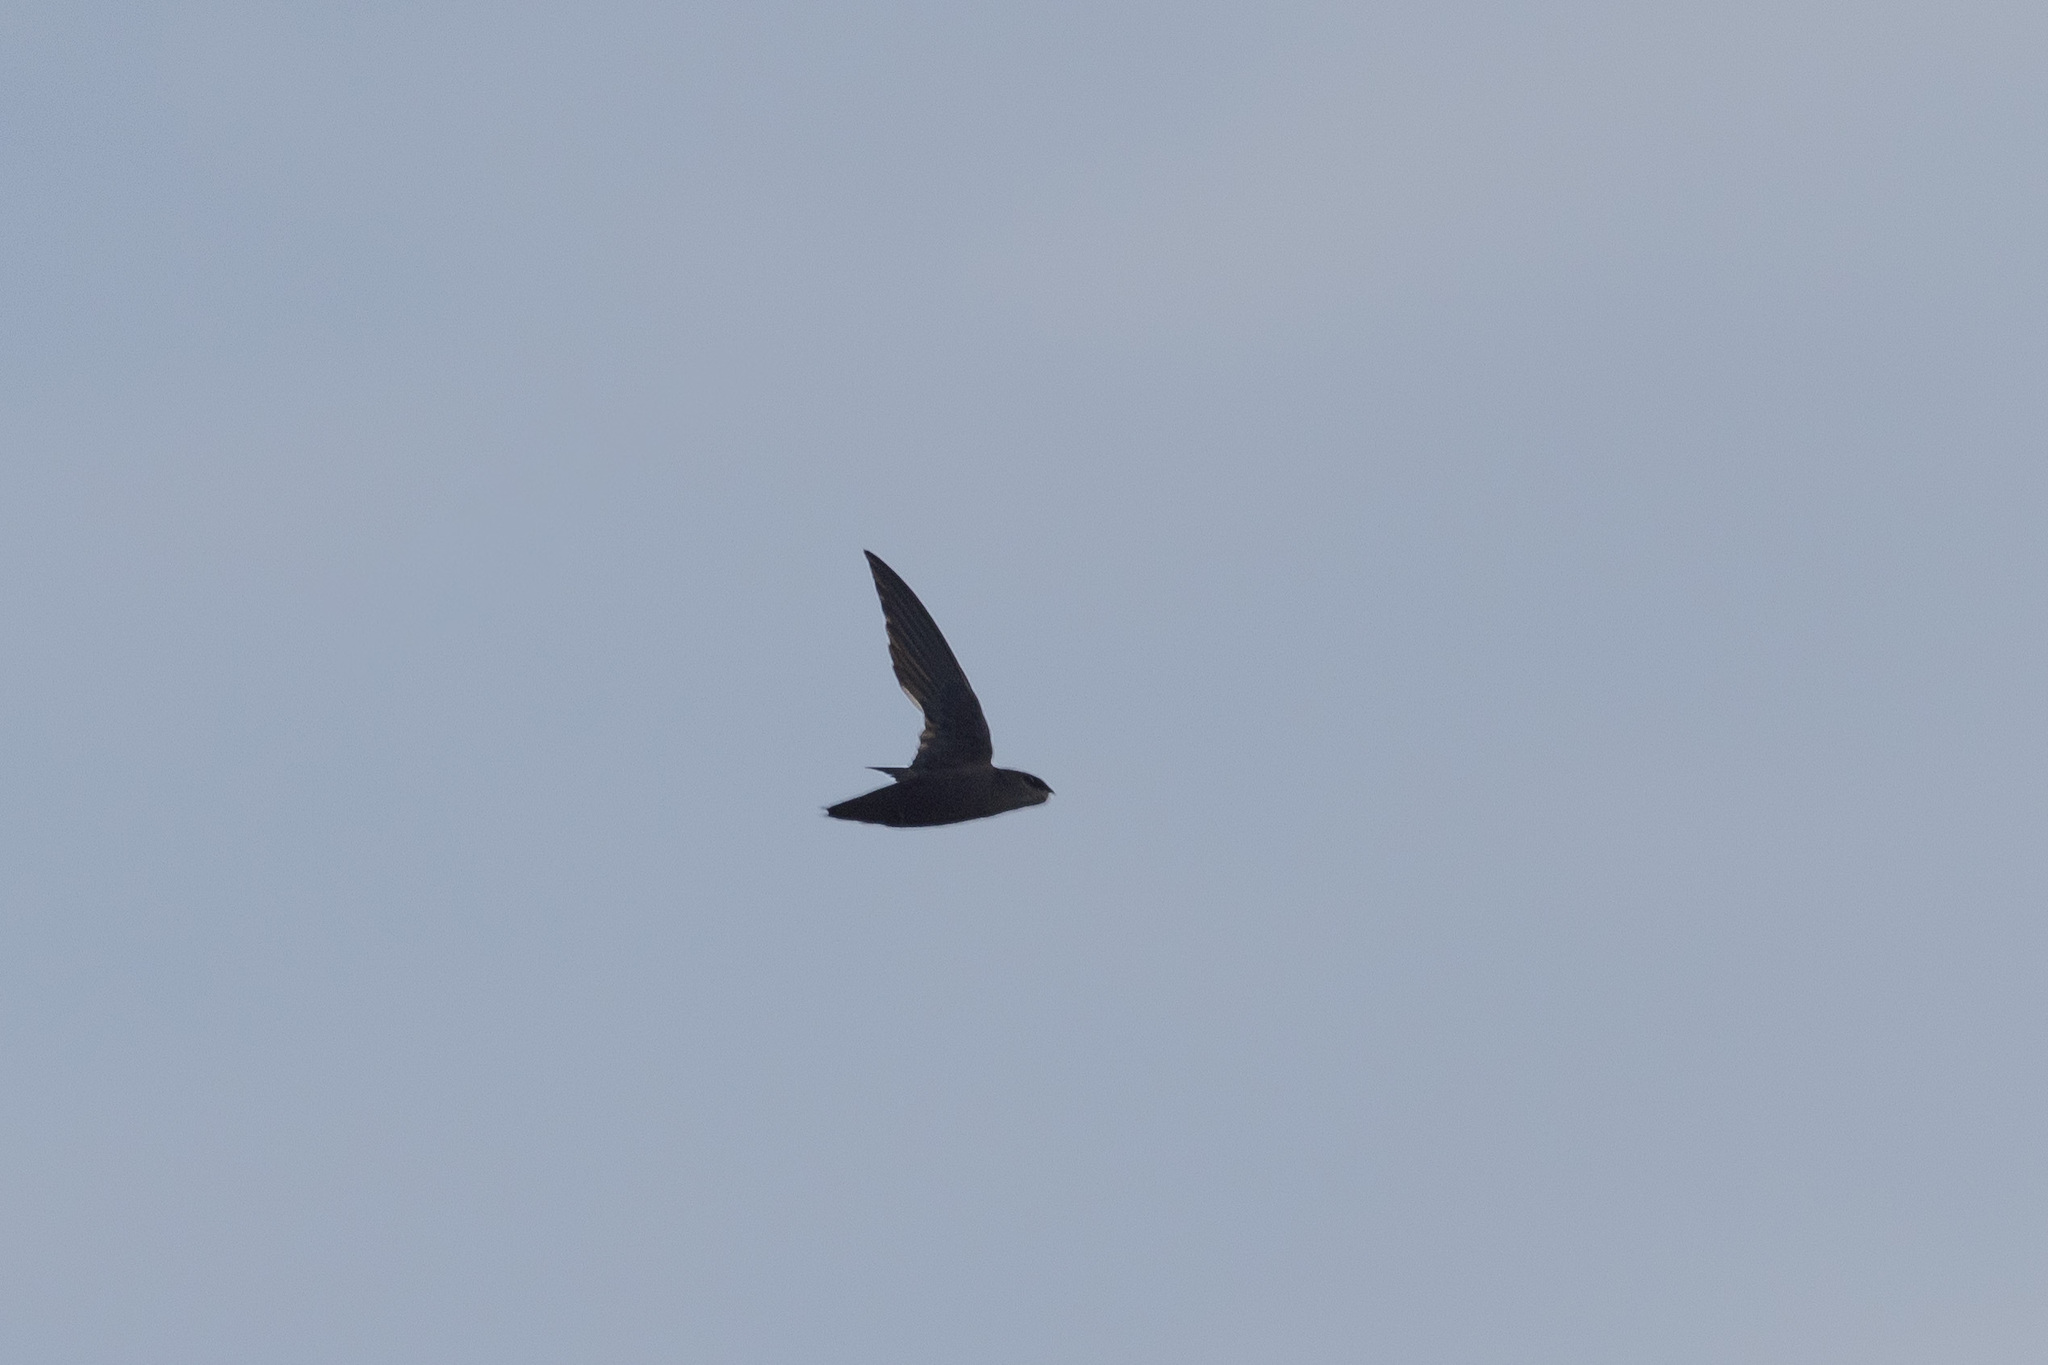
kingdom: Animalia
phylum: Chordata
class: Aves
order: Apodiformes
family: Apodidae
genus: Chaetura
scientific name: Chaetura pelagica
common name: Chimney swift
